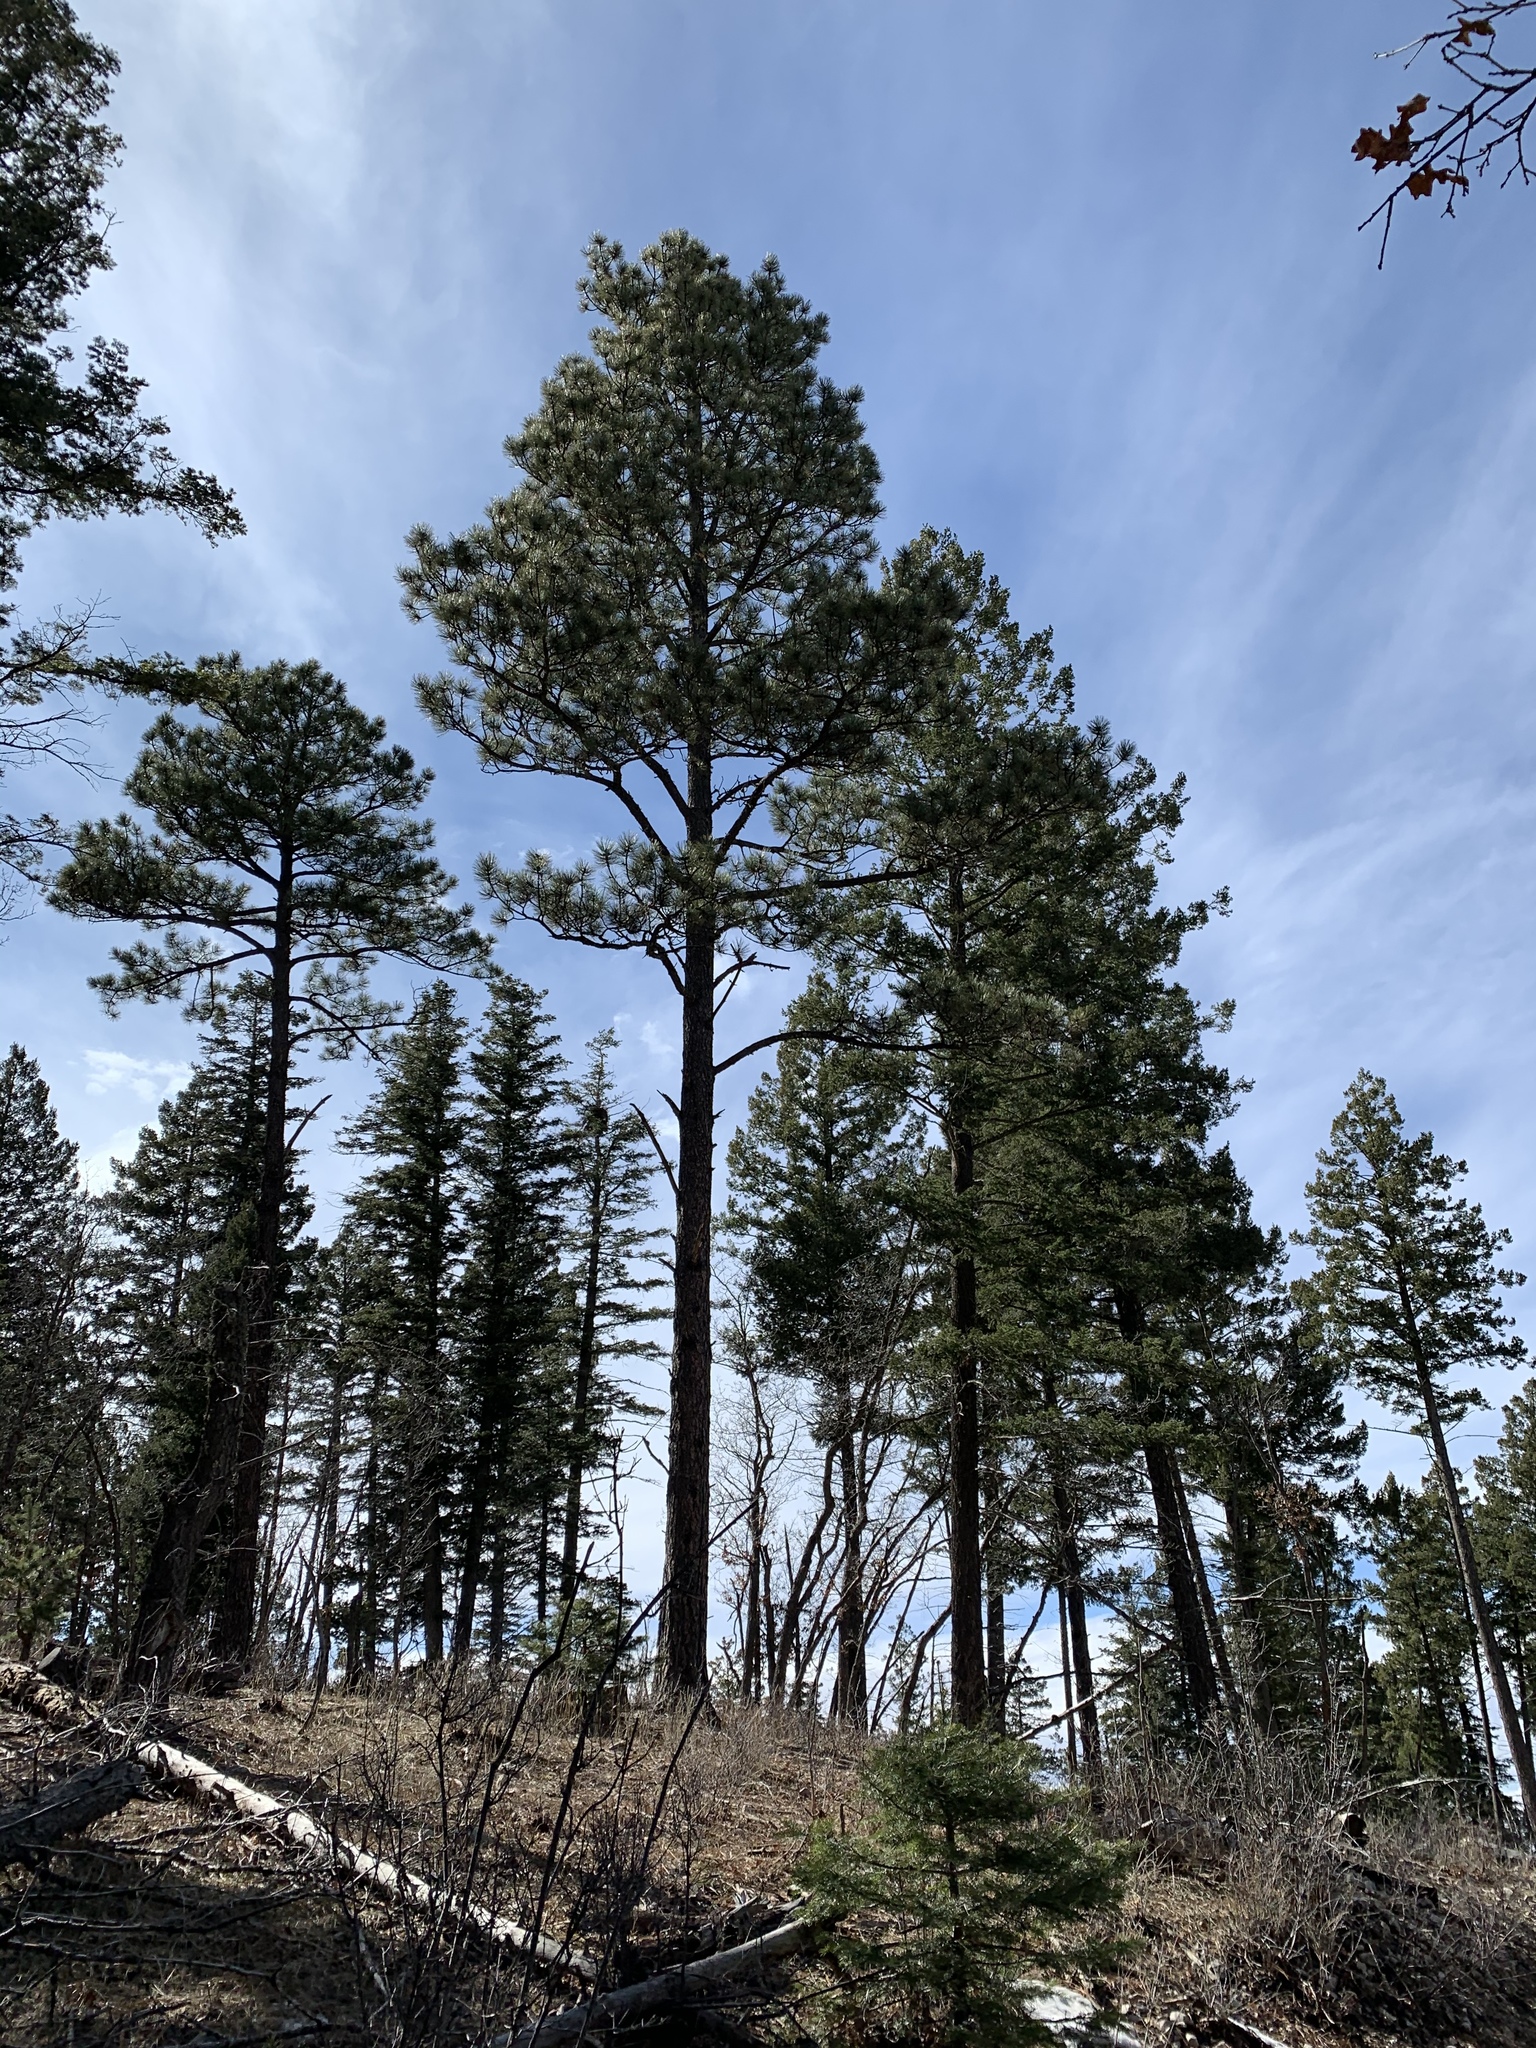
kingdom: Plantae
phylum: Tracheophyta
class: Pinopsida
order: Pinales
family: Pinaceae
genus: Pinus
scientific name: Pinus ponderosa
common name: Western yellow-pine
